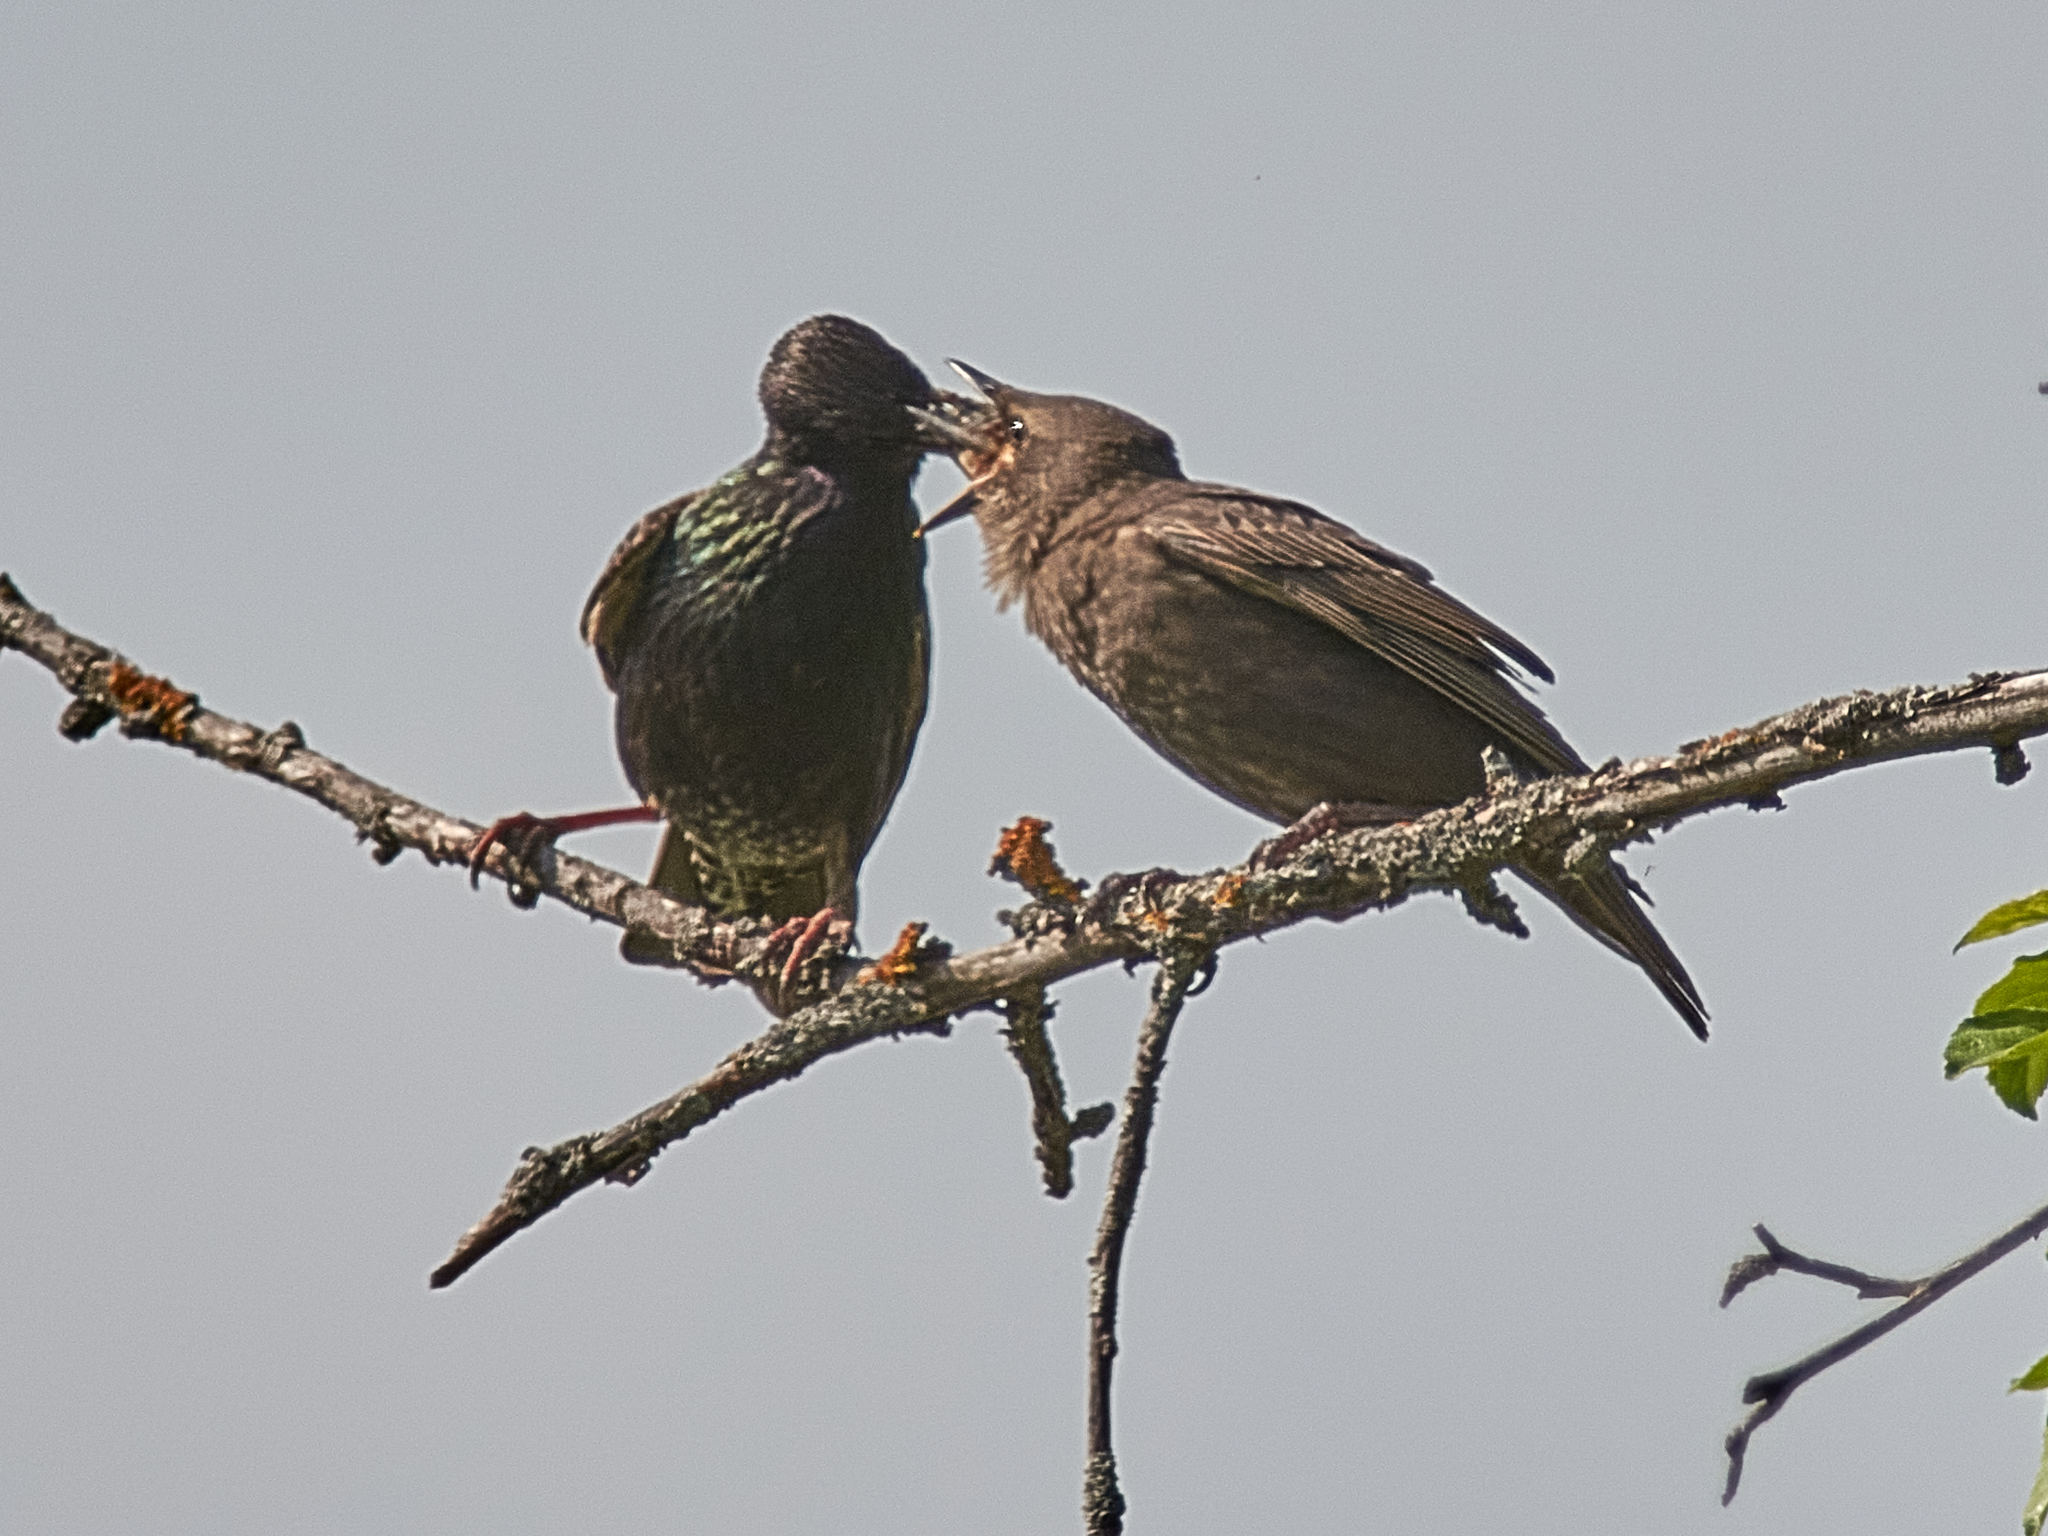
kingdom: Animalia
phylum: Chordata
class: Aves
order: Passeriformes
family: Sturnidae
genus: Sturnus
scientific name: Sturnus vulgaris
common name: Common starling
